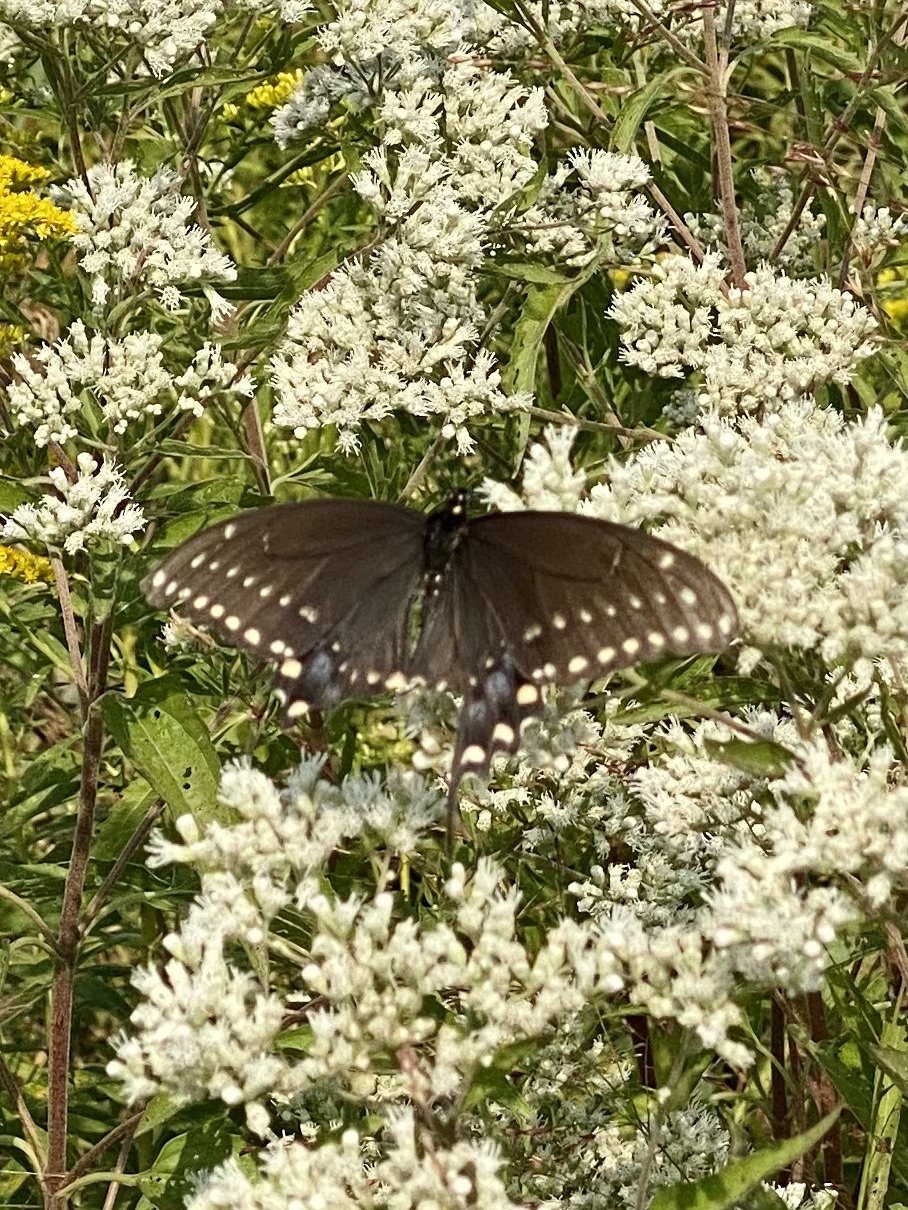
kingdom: Animalia
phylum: Arthropoda
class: Insecta
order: Lepidoptera
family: Papilionidae
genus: Papilio
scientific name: Papilio polyxenes
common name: Black swallowtail
